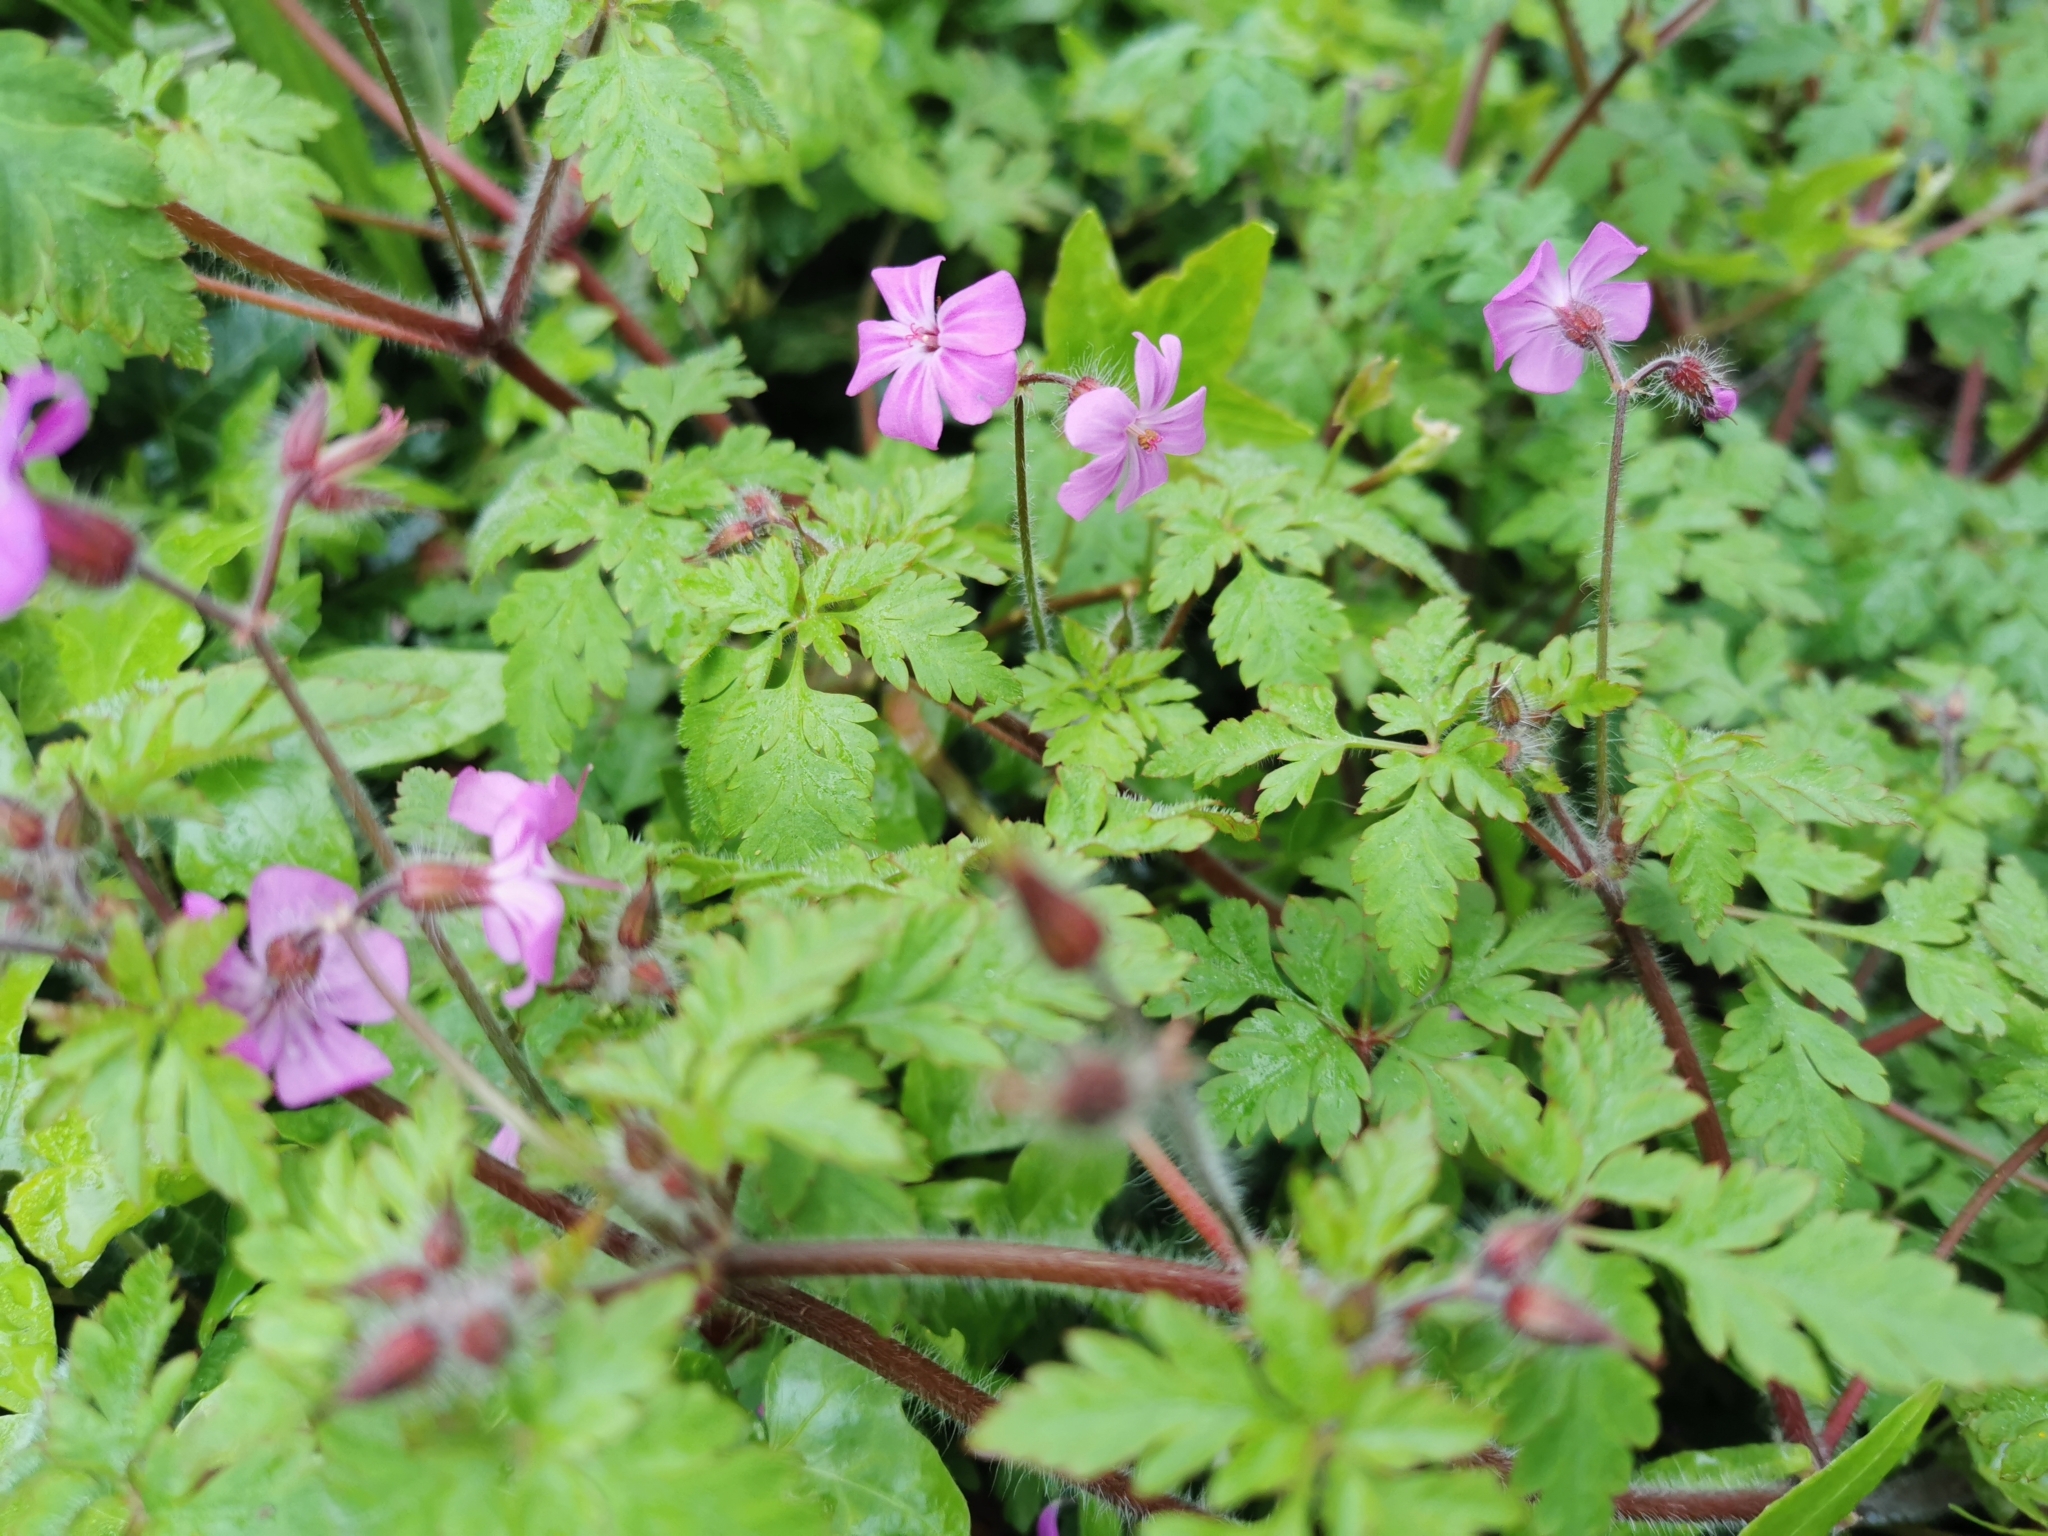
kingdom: Plantae
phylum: Tracheophyta
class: Magnoliopsida
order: Geraniales
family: Geraniaceae
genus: Geranium
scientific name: Geranium robertianum
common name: Herb-robert
